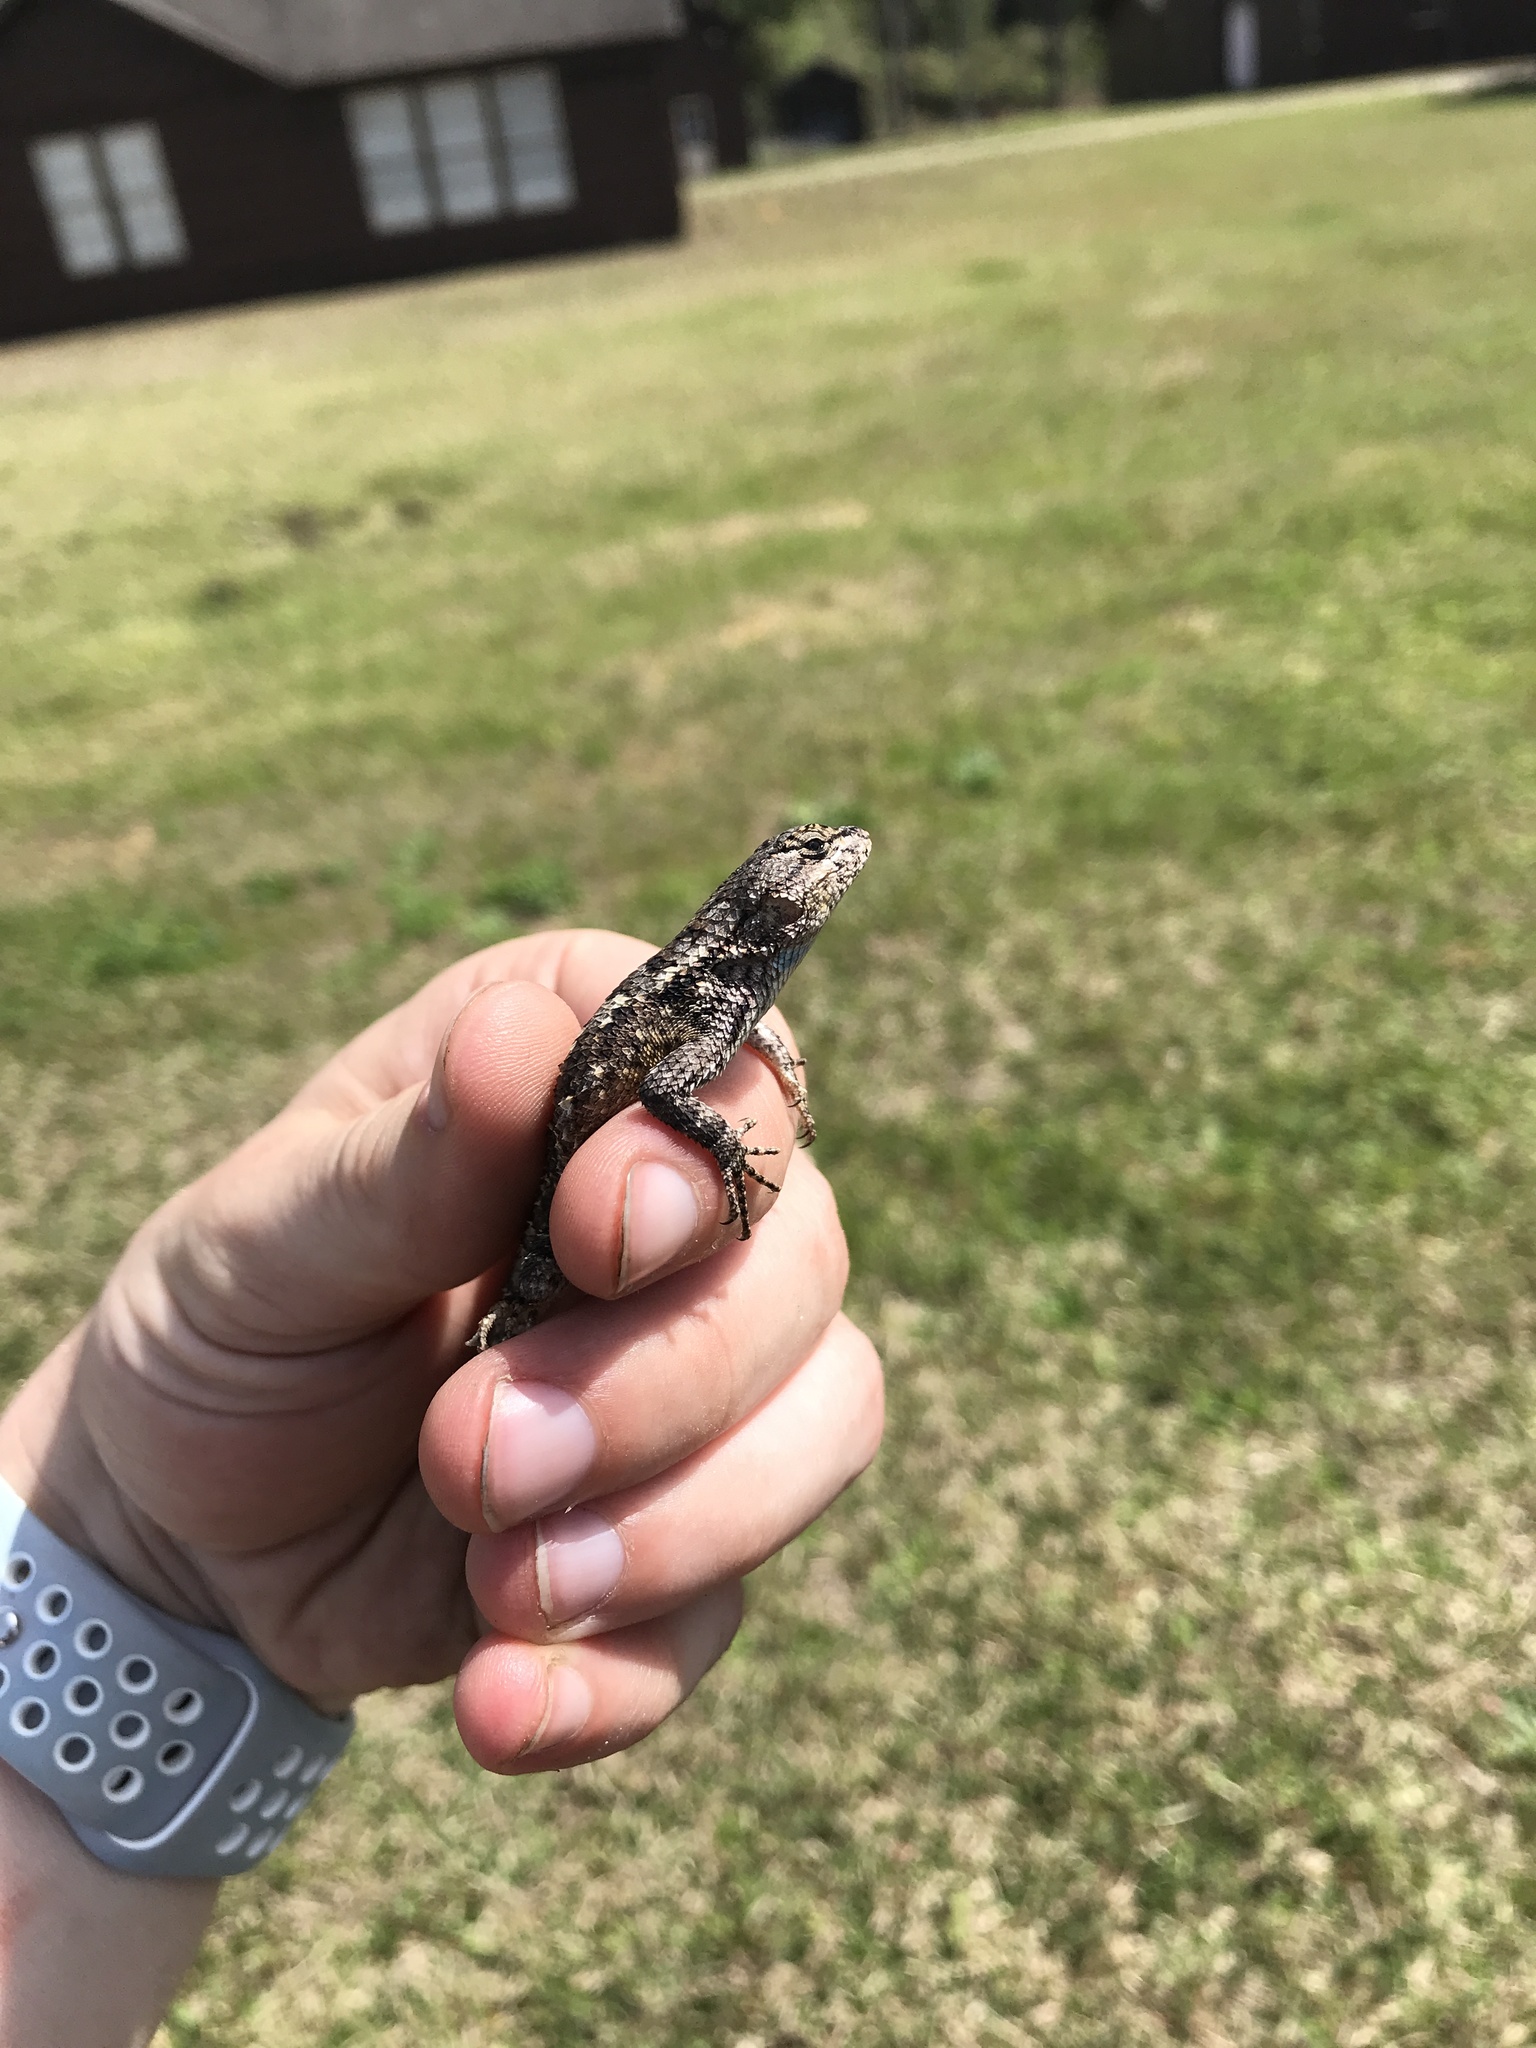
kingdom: Animalia
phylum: Chordata
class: Squamata
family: Phrynosomatidae
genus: Sceloporus
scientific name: Sceloporus consobrinus
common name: Southern prairie lizard
